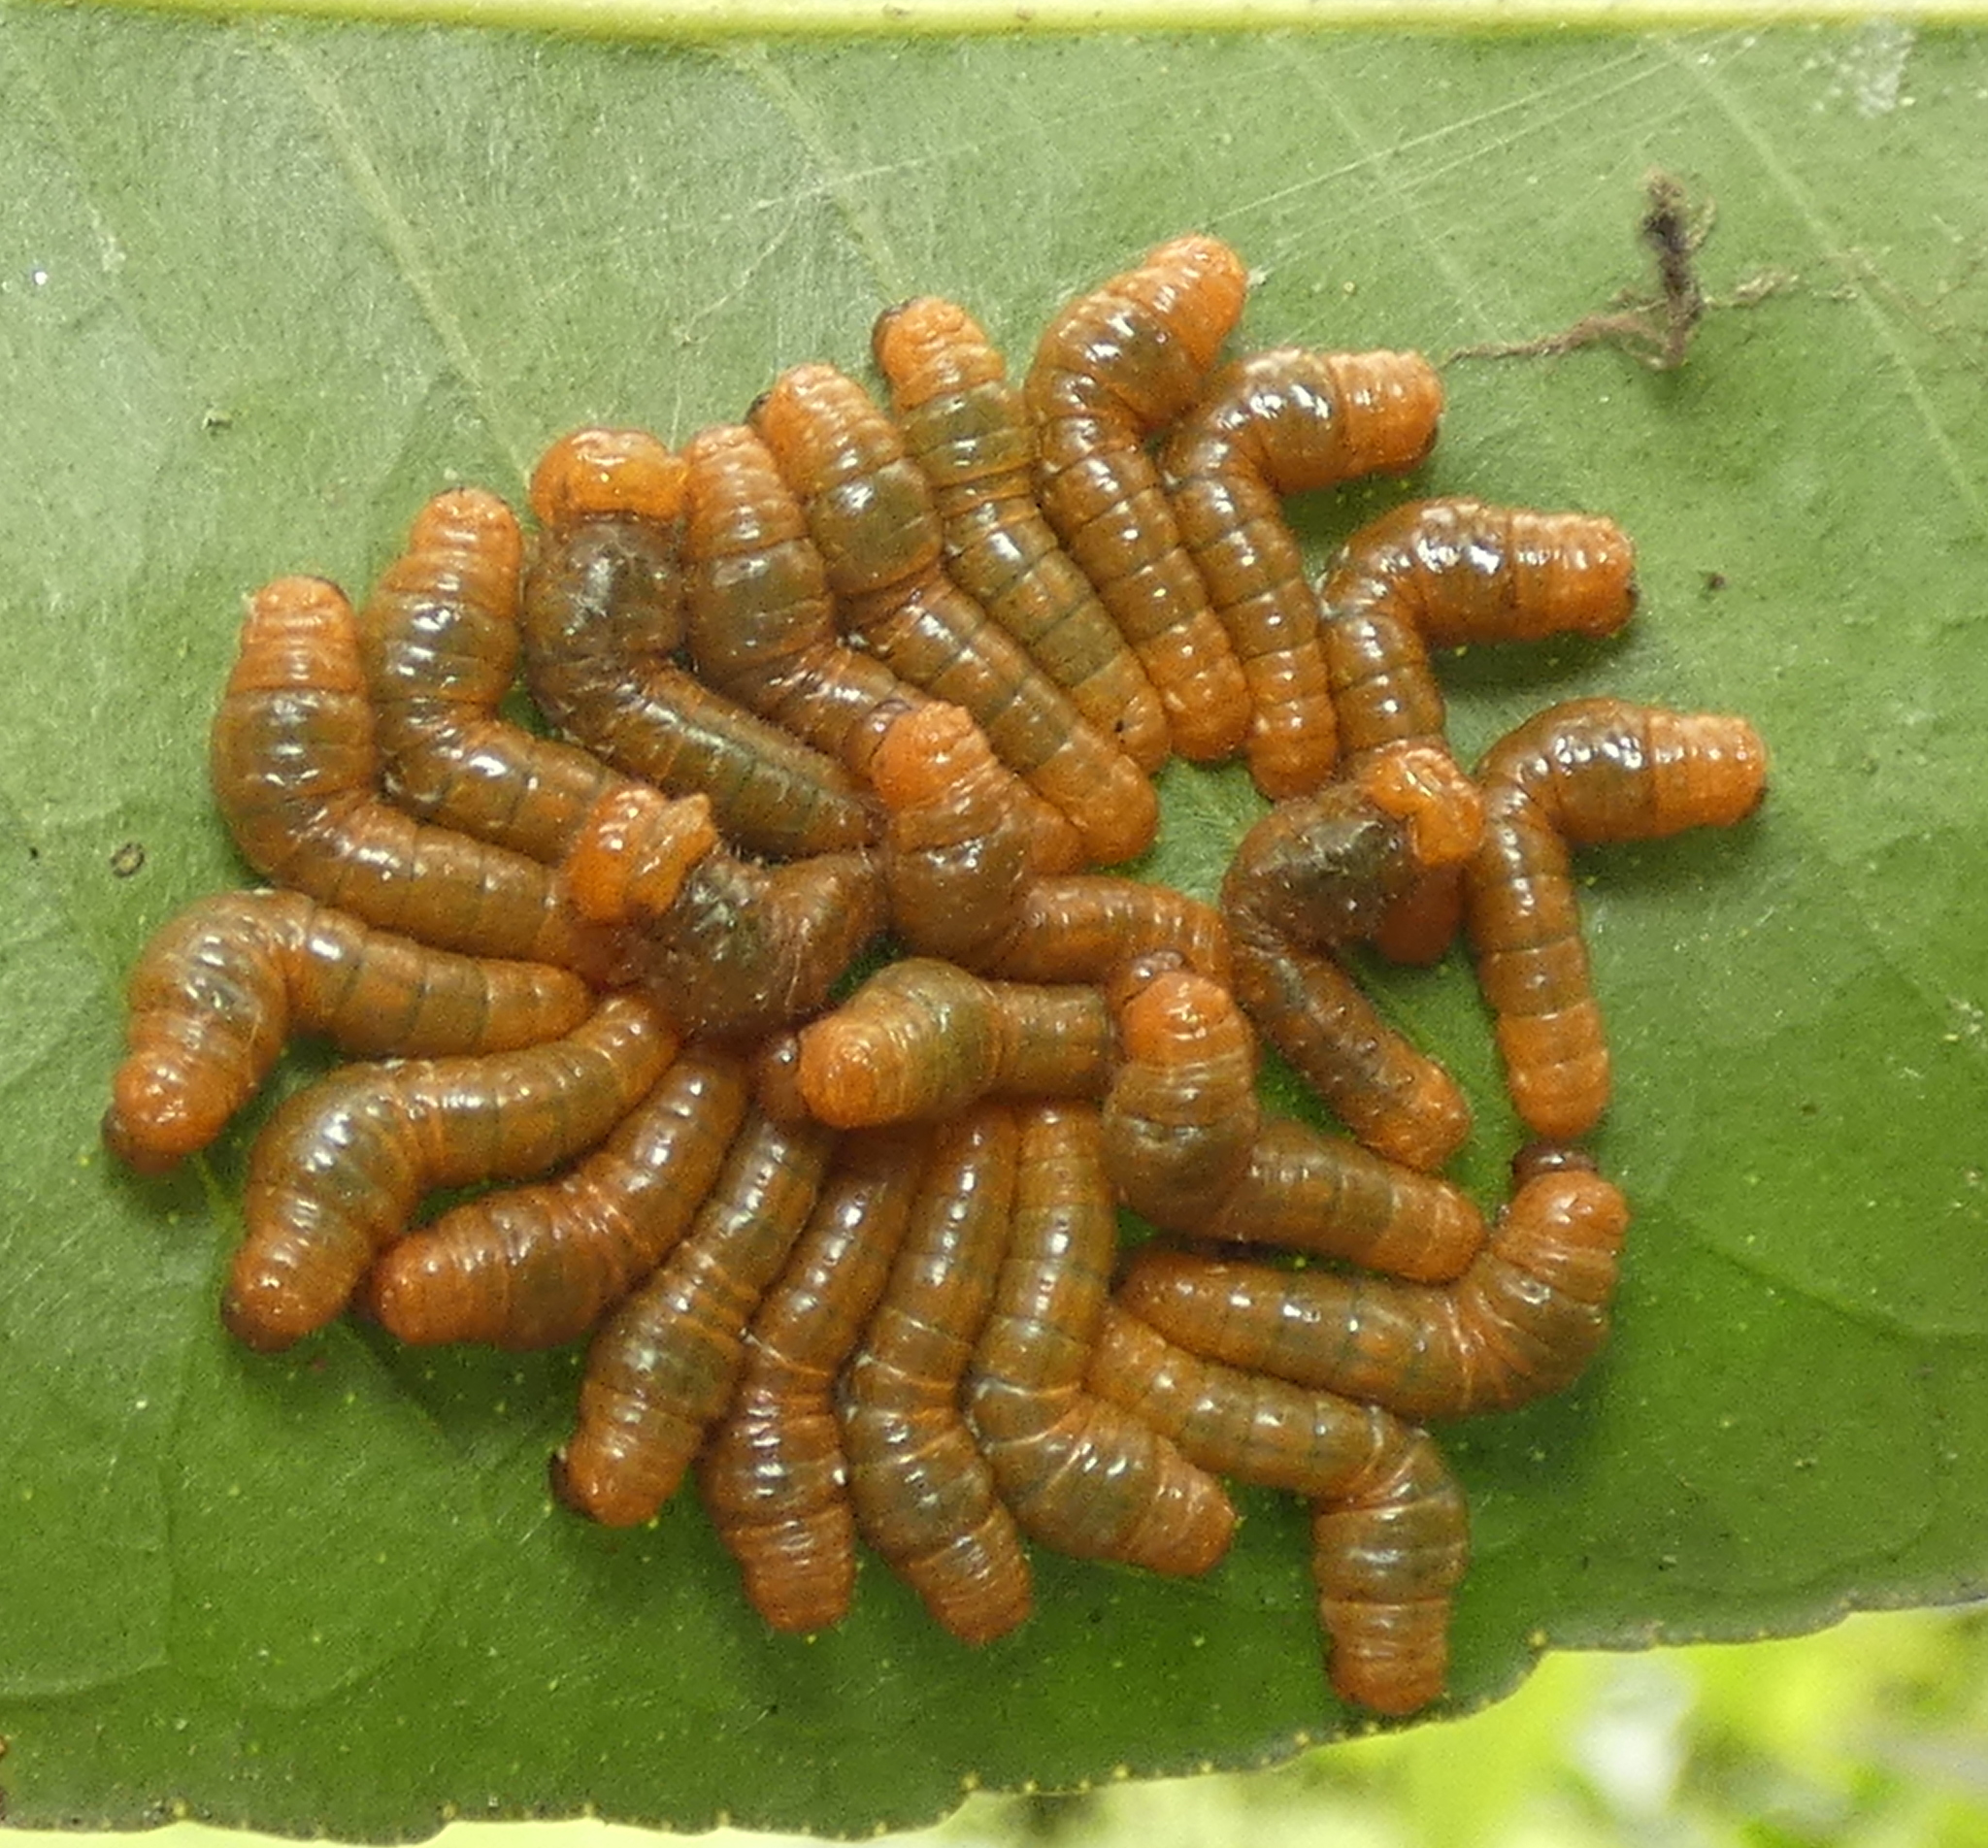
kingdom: Animalia
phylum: Arthropoda
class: Insecta
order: Lepidoptera
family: Papilionidae
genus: Papilio
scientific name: Papilio anchisiades
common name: Idaes swallowtail
